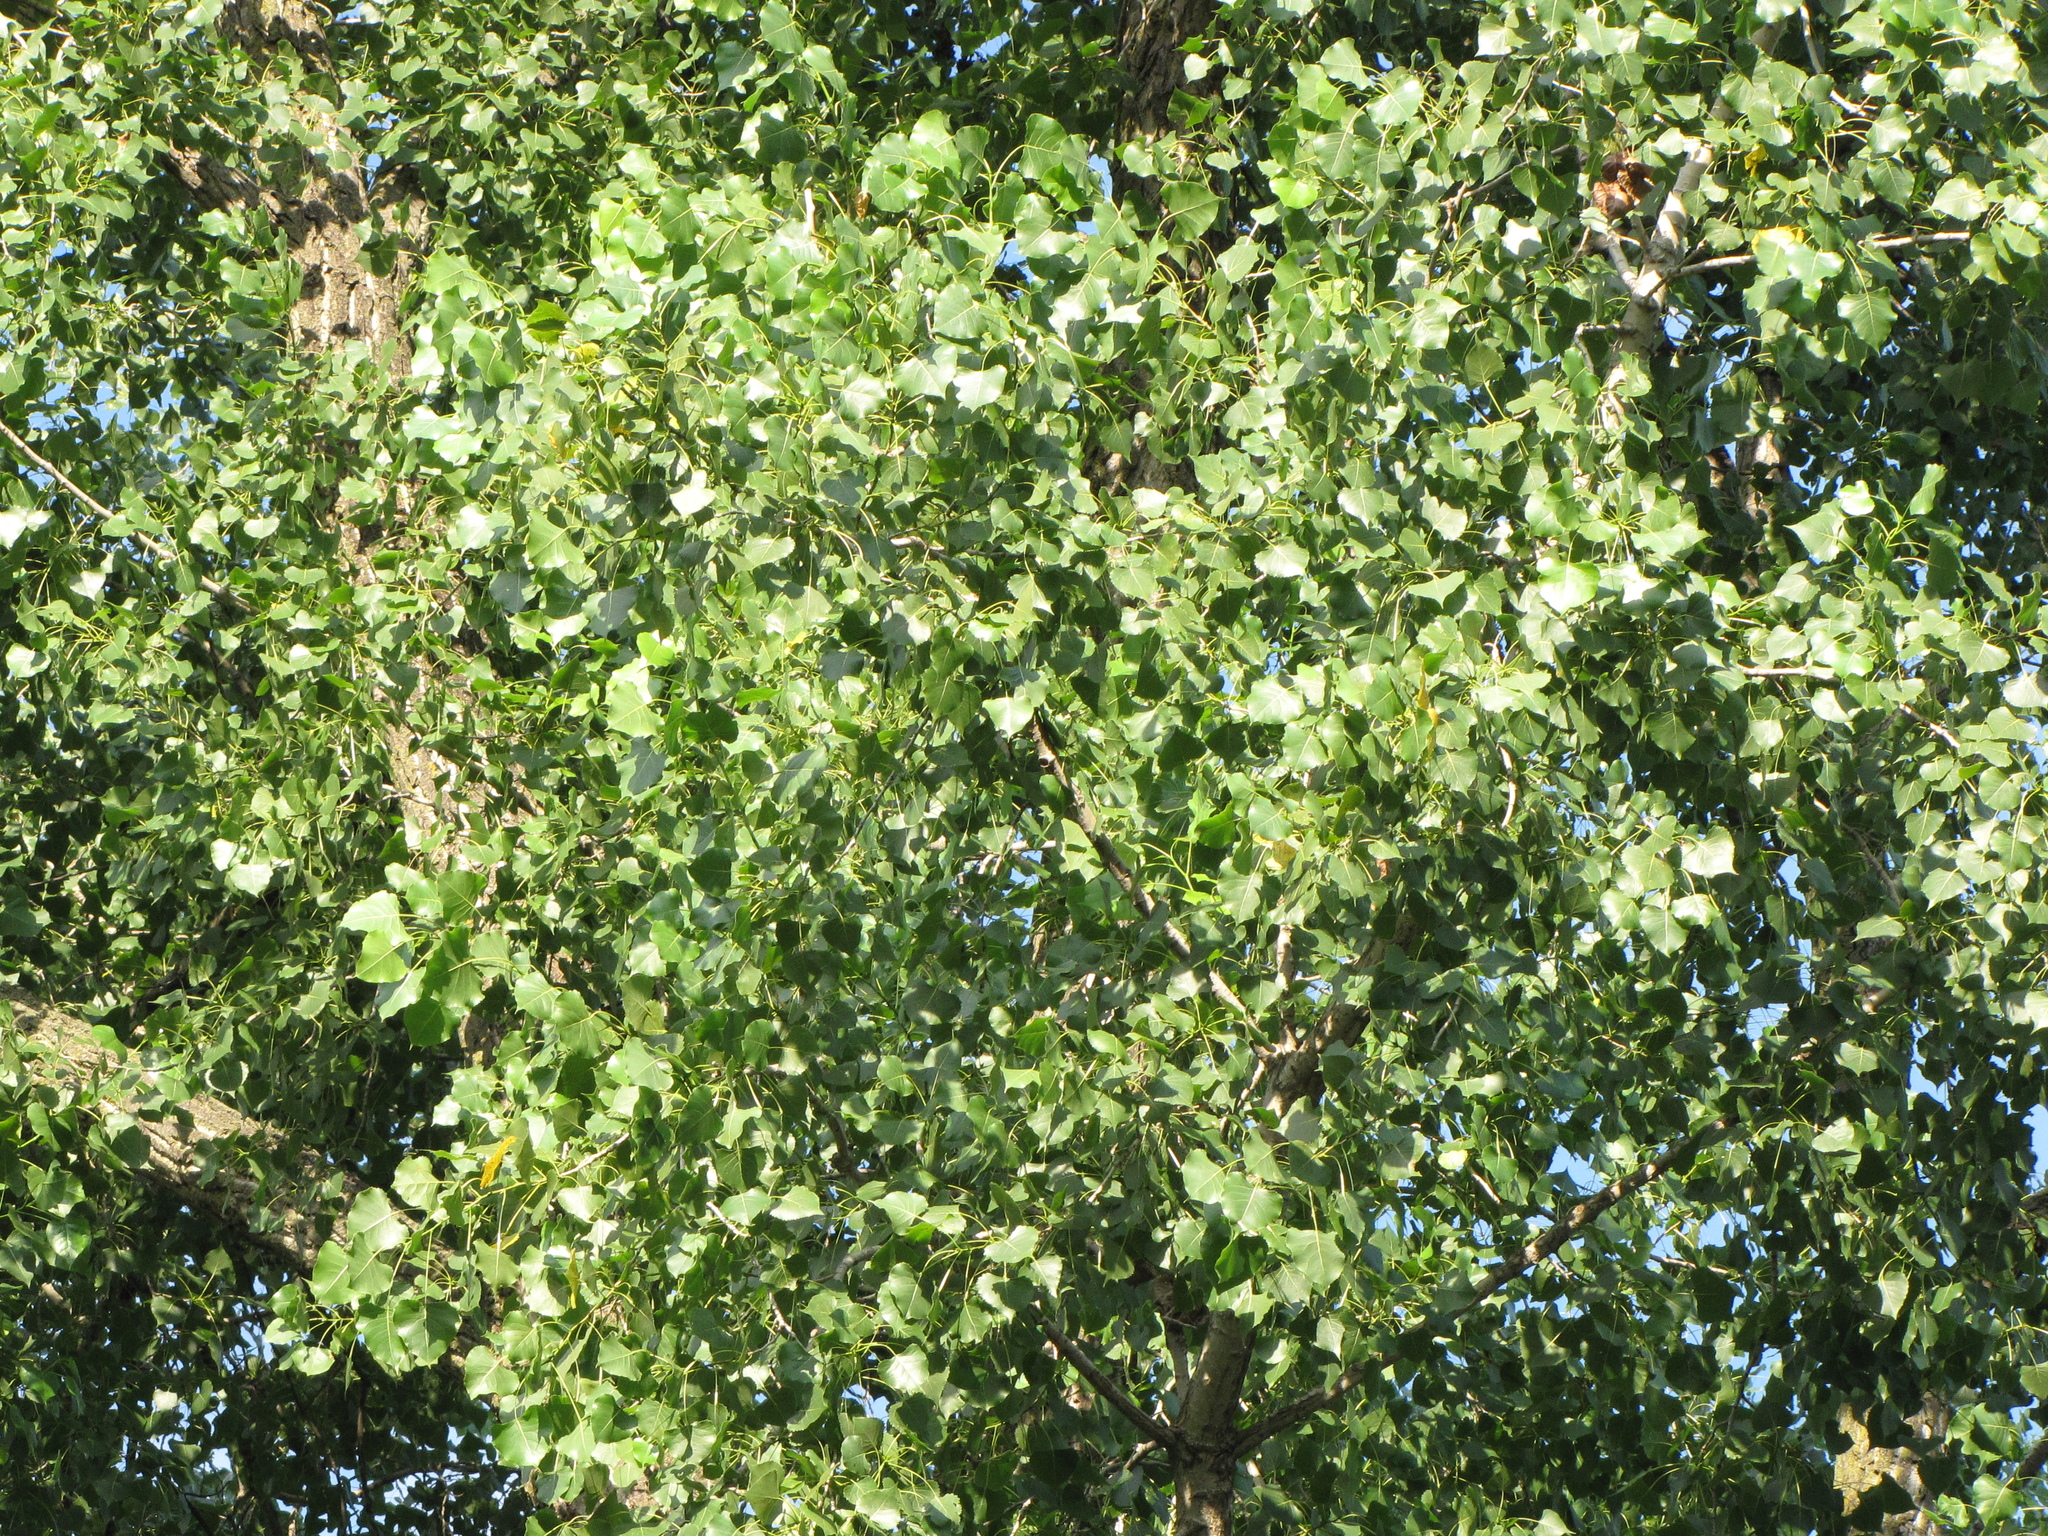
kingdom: Plantae
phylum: Tracheophyta
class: Magnoliopsida
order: Malpighiales
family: Salicaceae
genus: Populus
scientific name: Populus deltoides
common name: Eastern cottonwood
